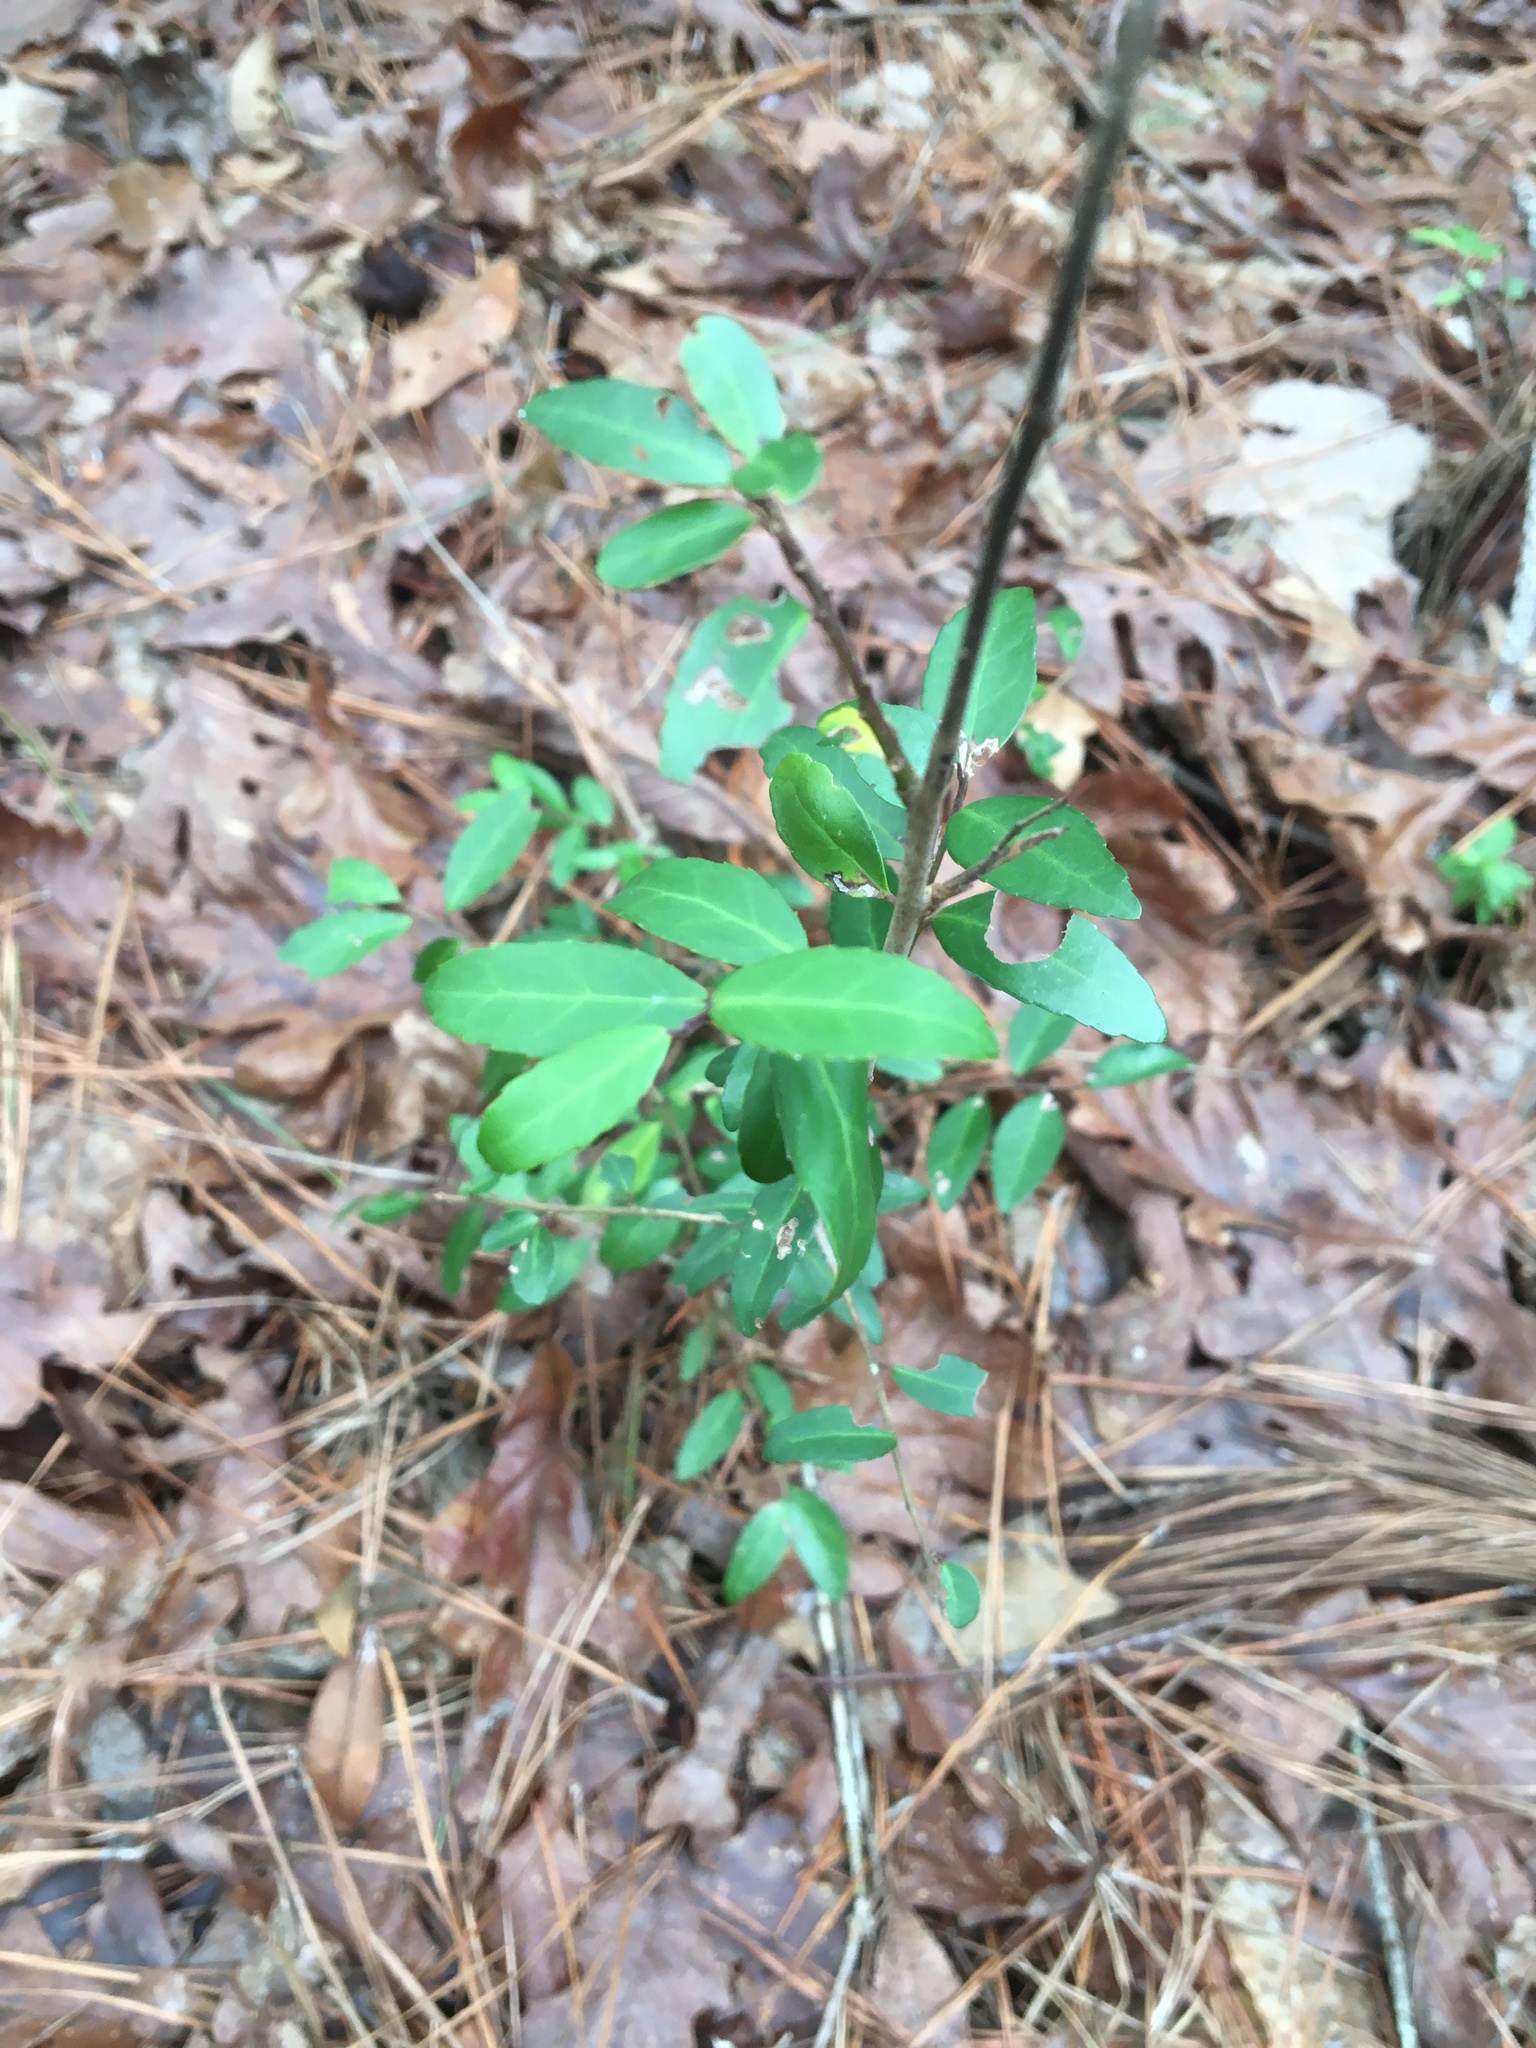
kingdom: Plantae
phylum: Tracheophyta
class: Magnoliopsida
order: Aquifoliales
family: Aquifoliaceae
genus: Ilex
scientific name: Ilex vomitoria
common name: Yaupon holly
